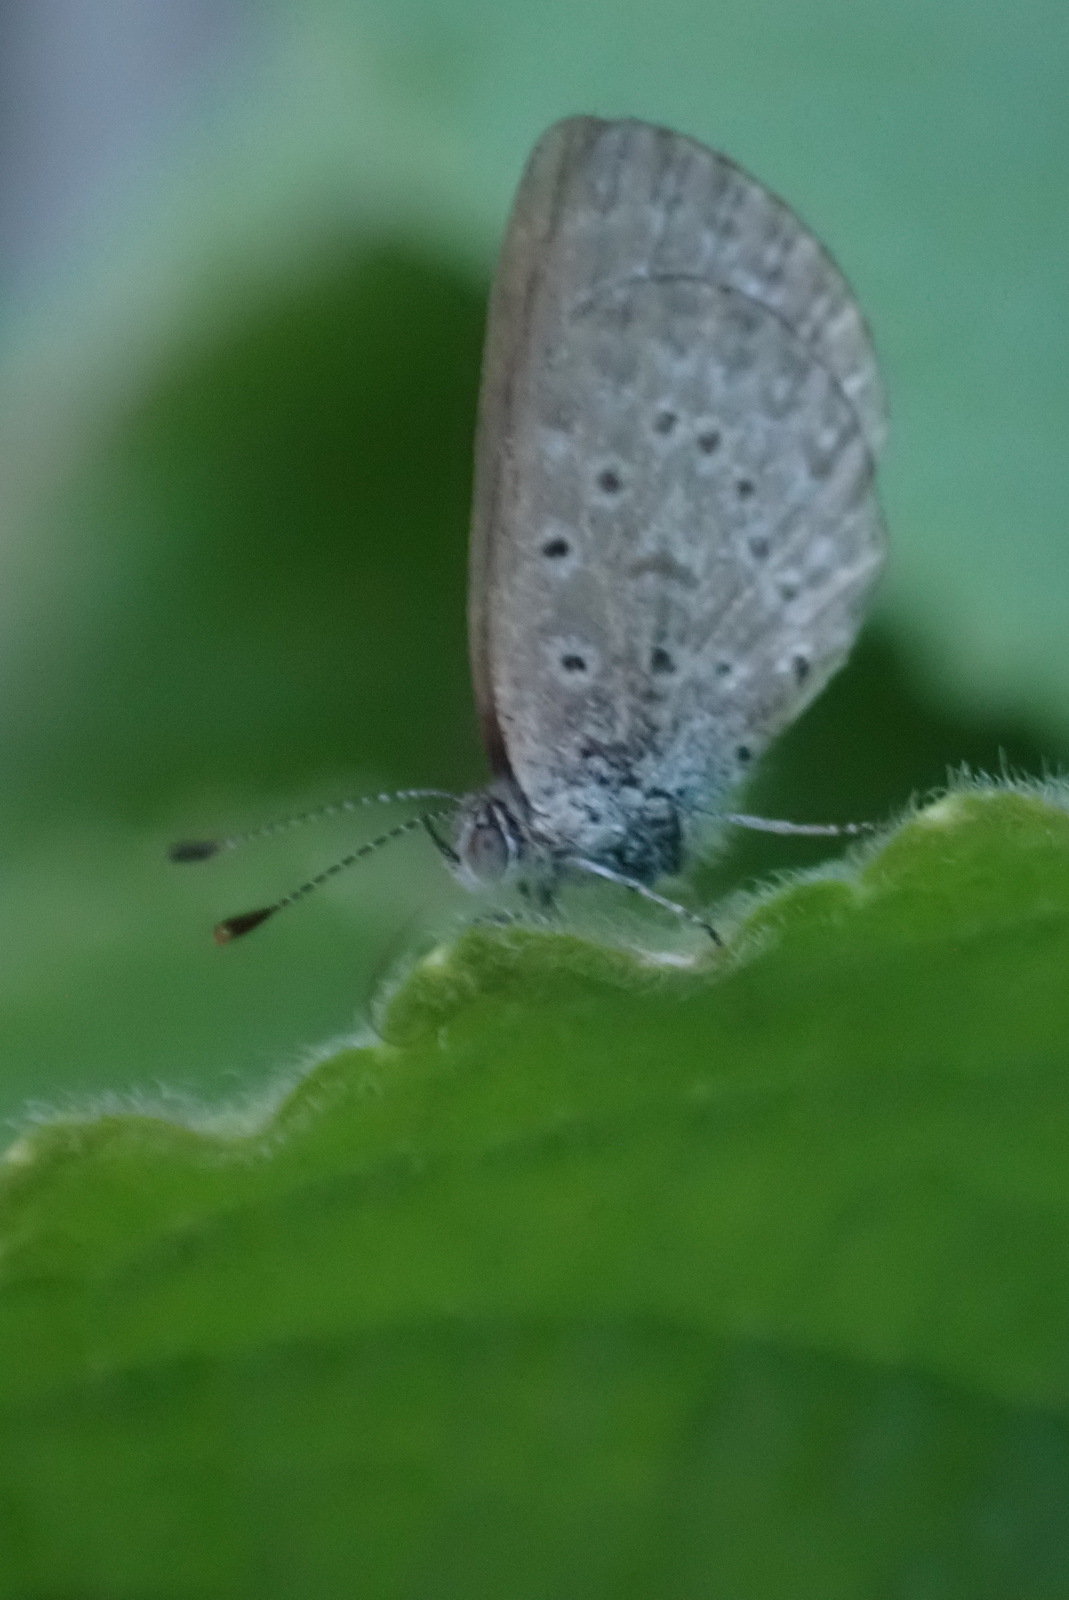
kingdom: Animalia
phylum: Arthropoda
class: Insecta
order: Lepidoptera
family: Lycaenidae
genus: Zizeeria
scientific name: Zizeeria knysna
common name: African grass blue
